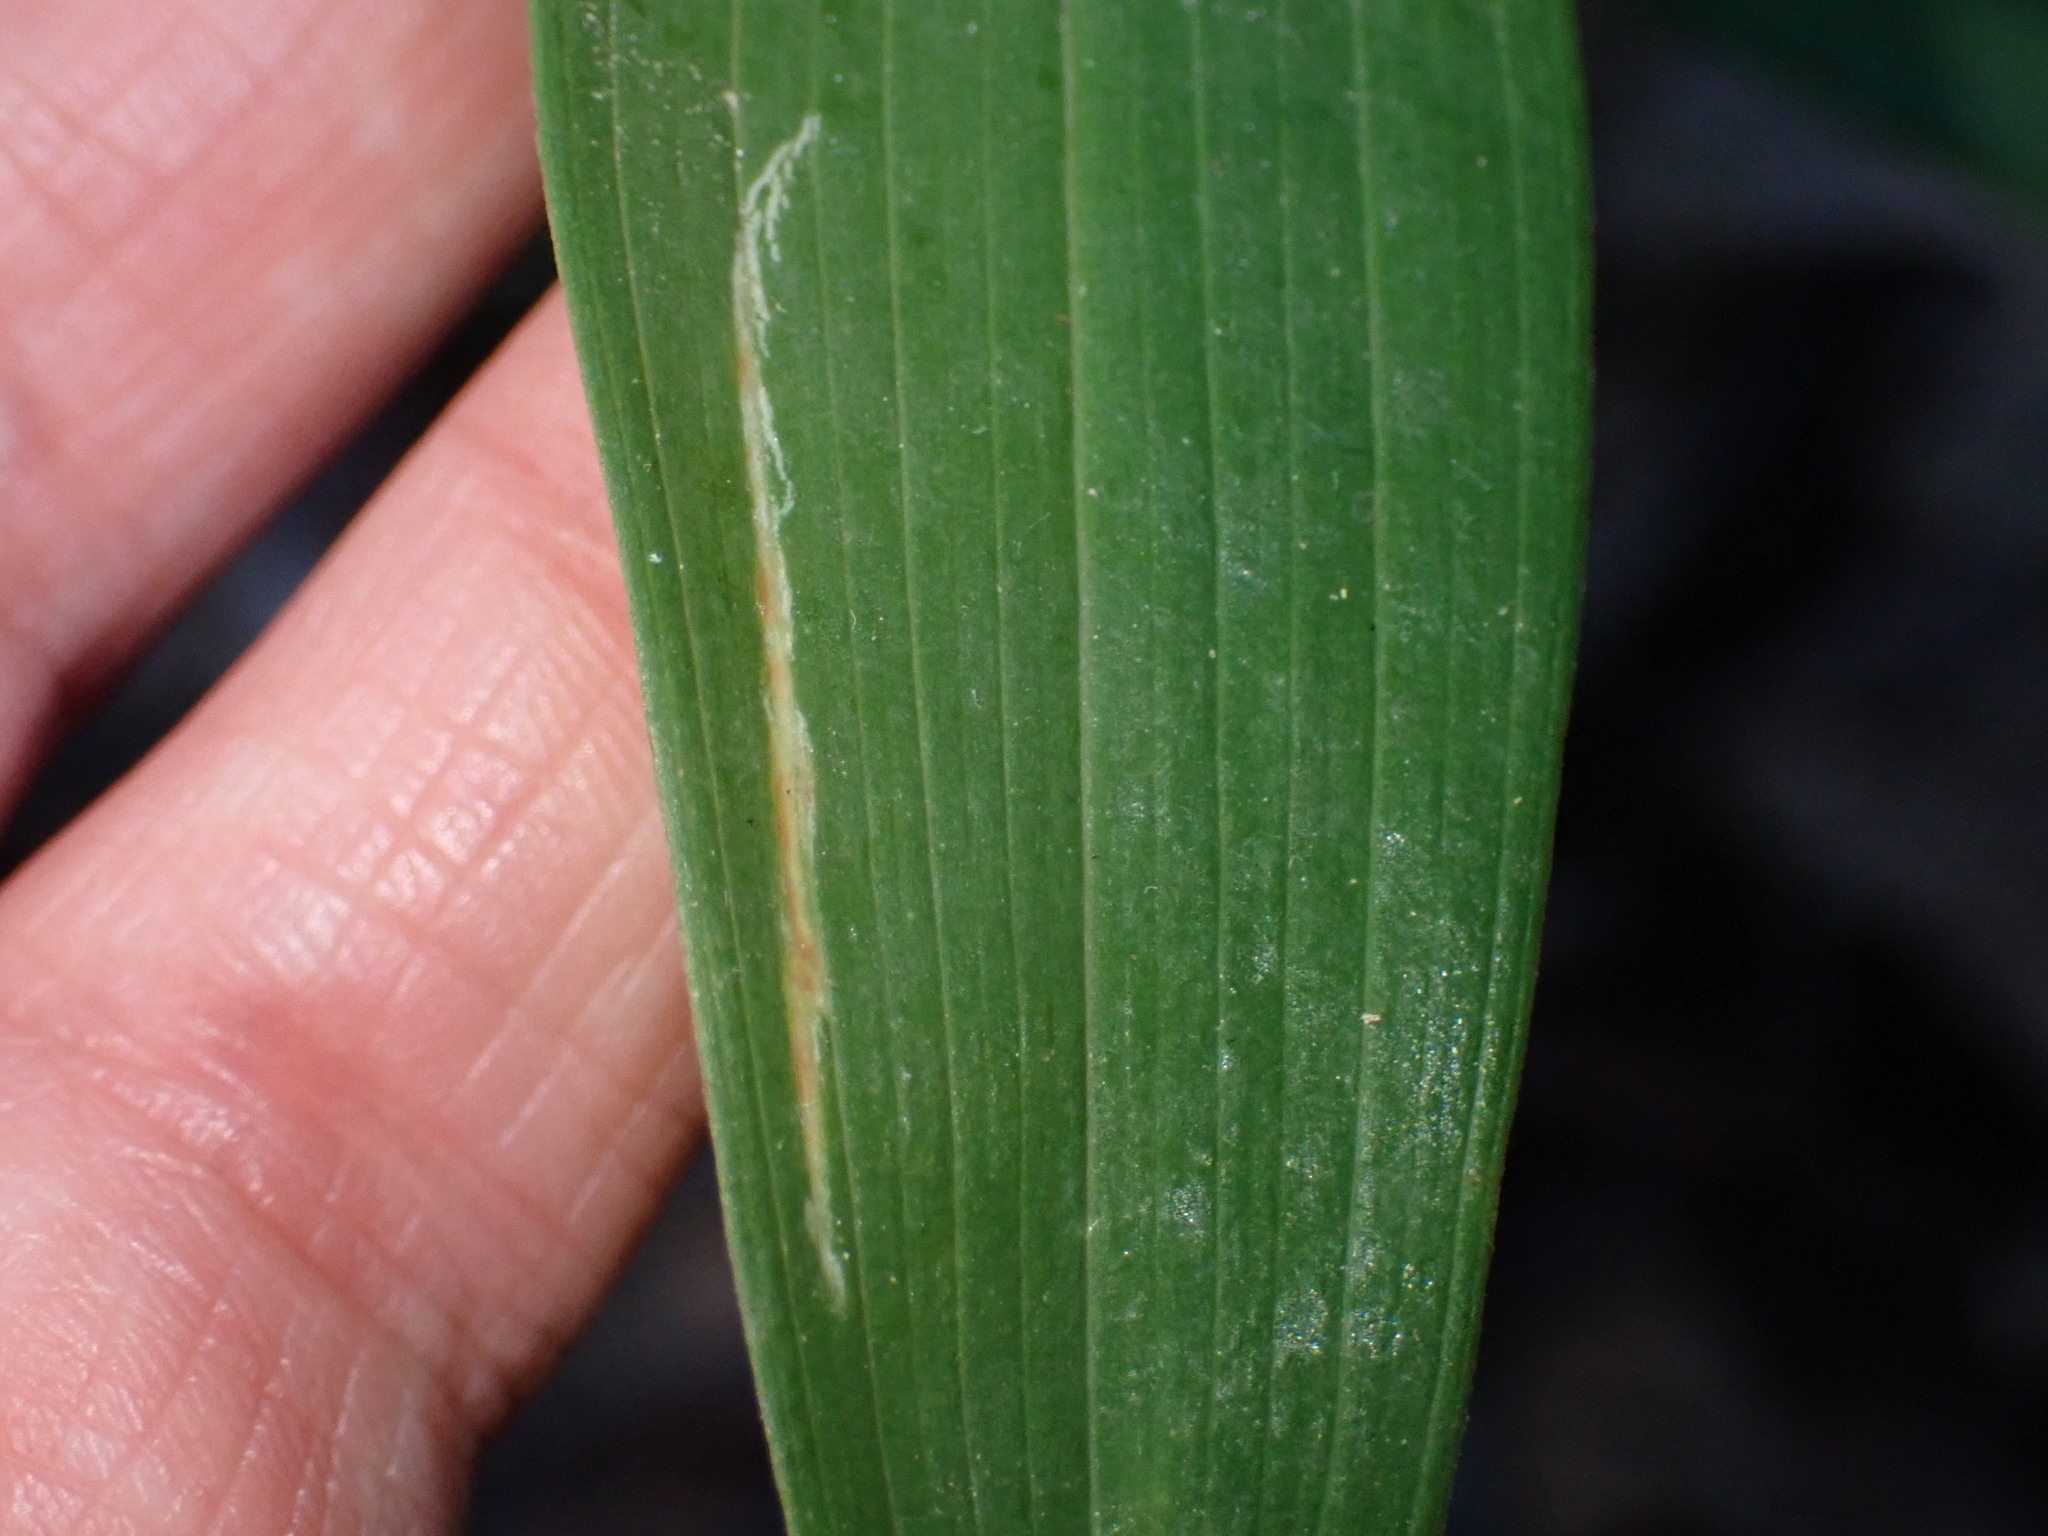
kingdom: Plantae
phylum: Tracheophyta
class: Liliopsida
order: Asparagales
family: Asparagaceae
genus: Polygonatum
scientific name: Polygonatum biflorum
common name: American solomon's-seal
